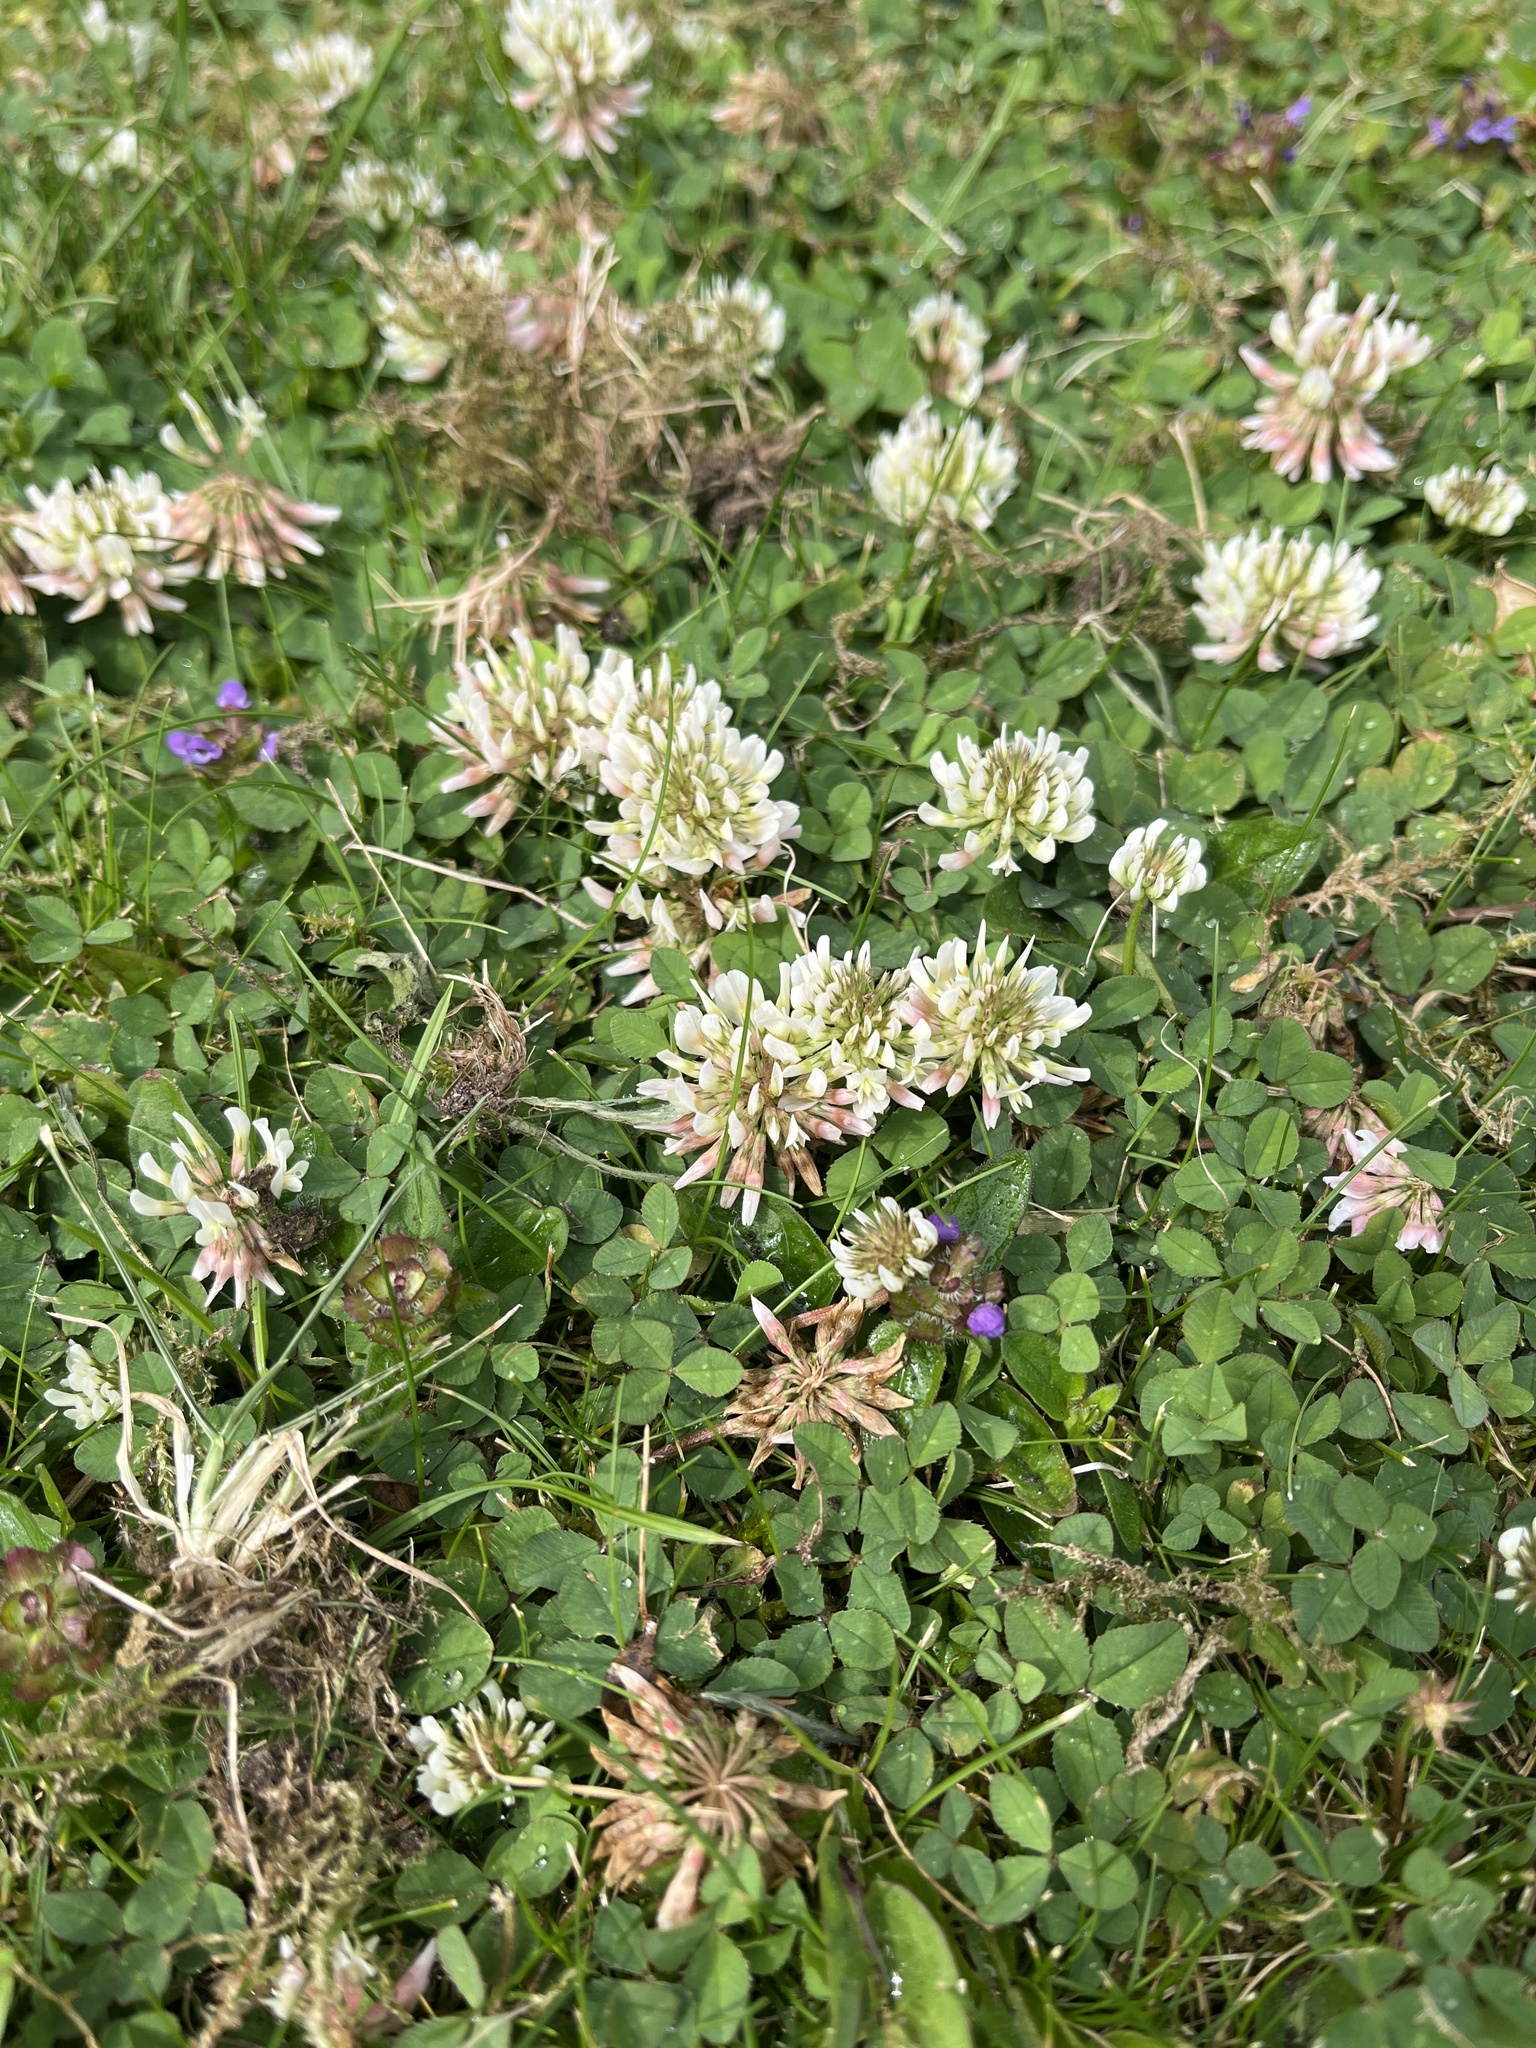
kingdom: Plantae
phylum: Tracheophyta
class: Magnoliopsida
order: Fabales
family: Fabaceae
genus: Trifolium
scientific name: Trifolium repens
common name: White clover
